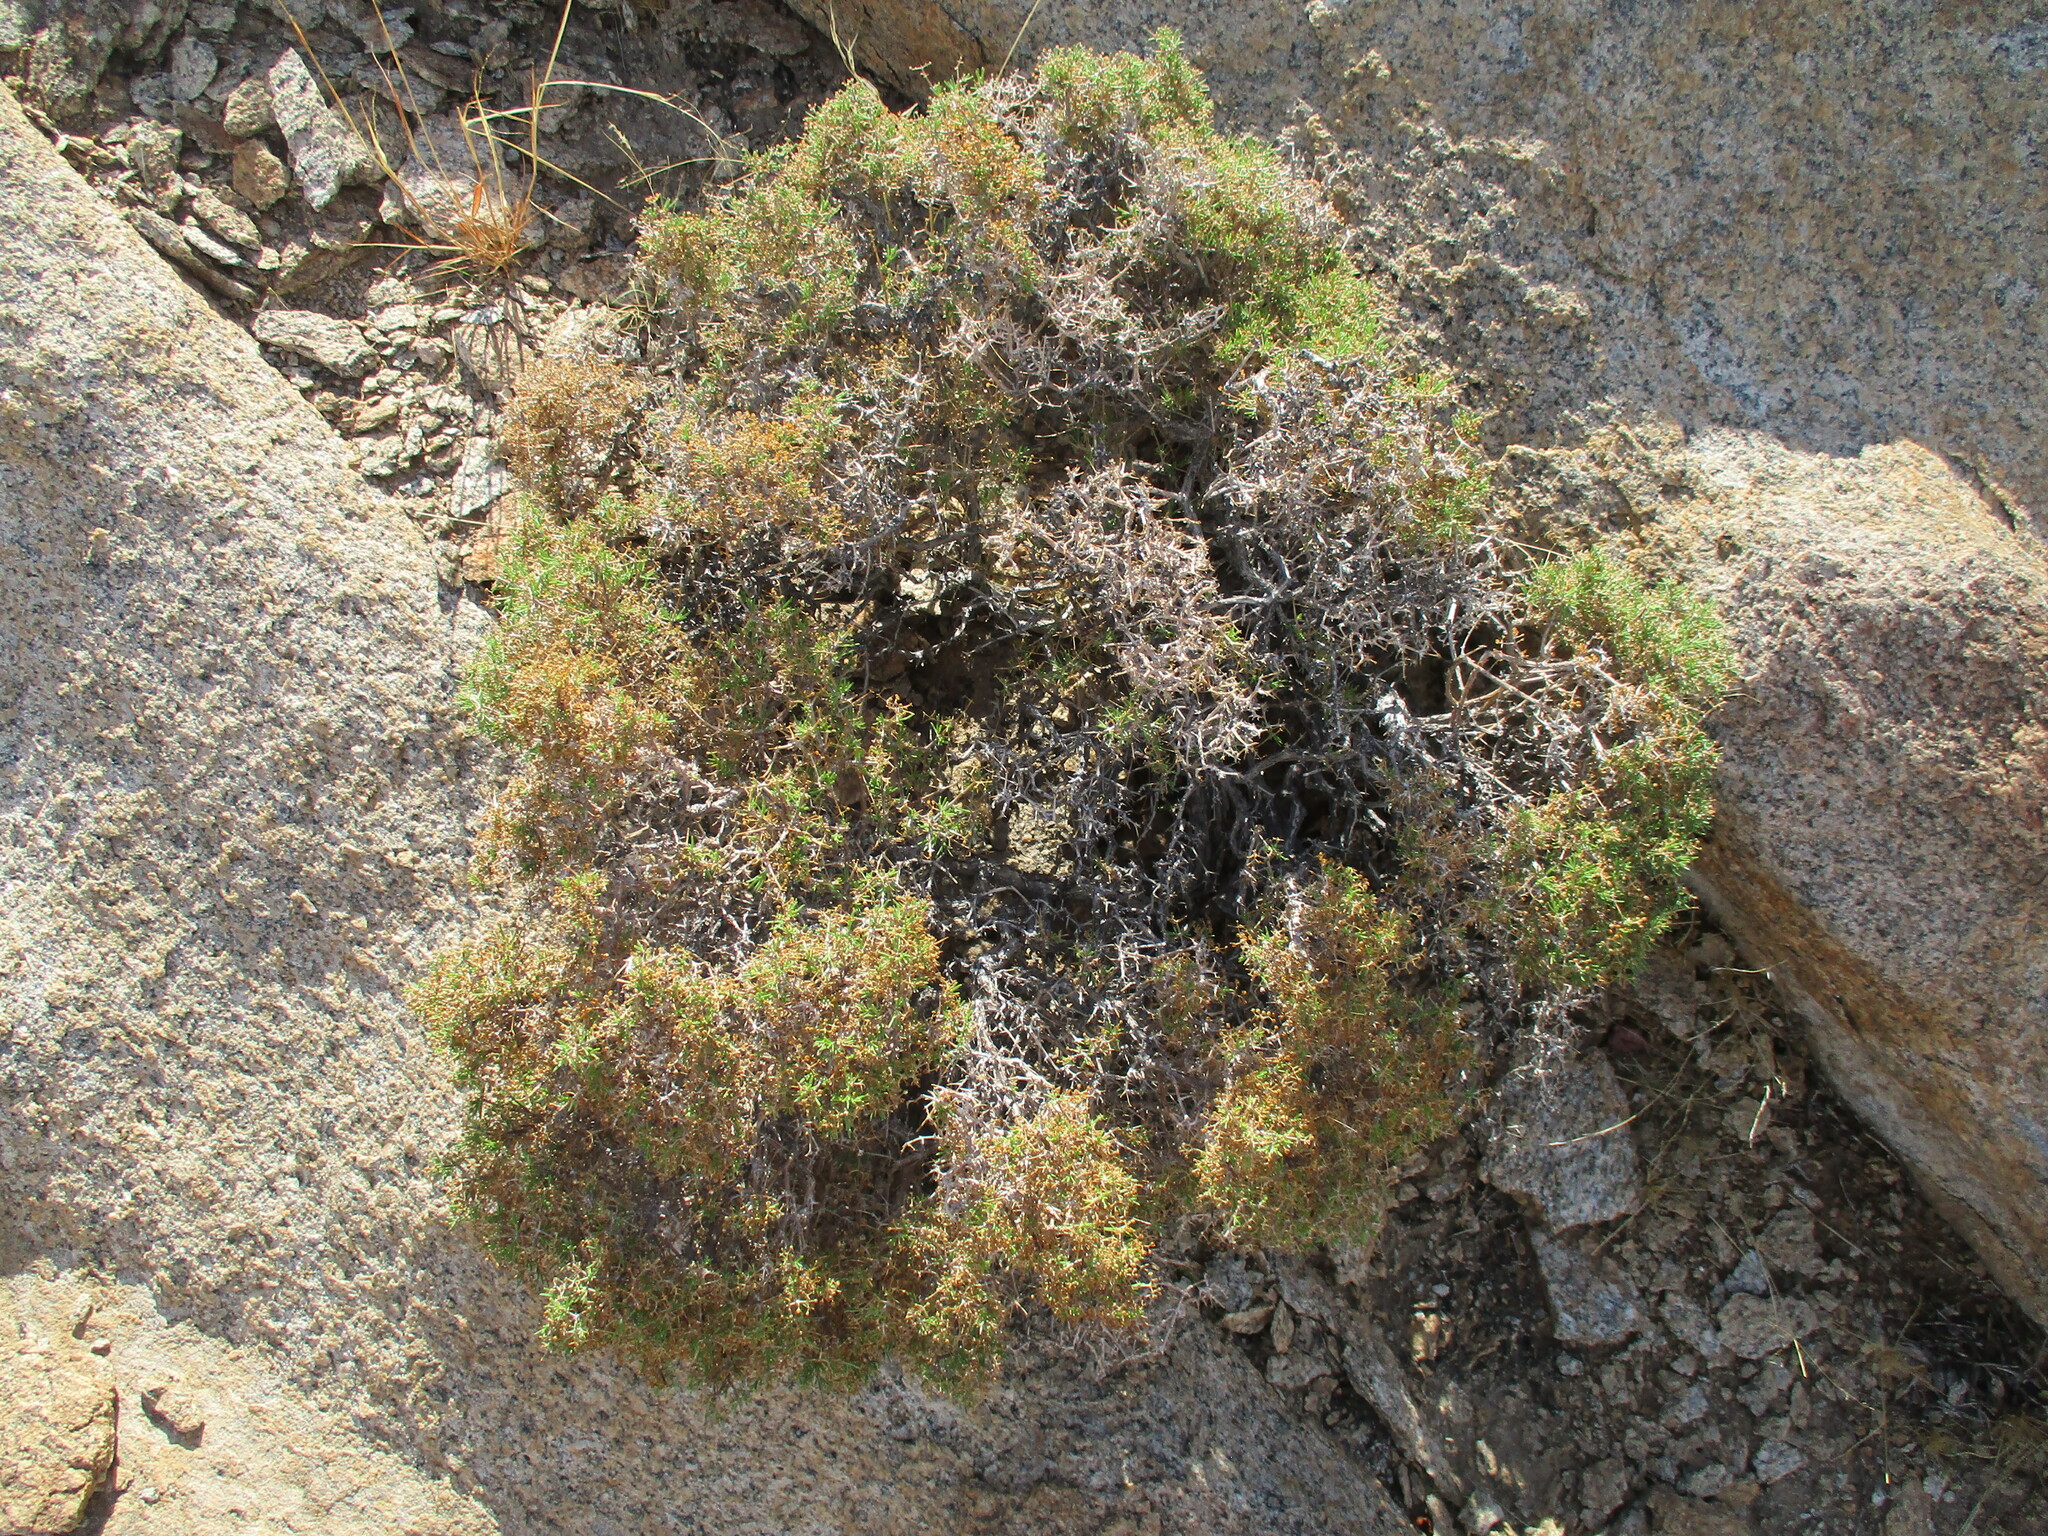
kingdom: Plantae
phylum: Tracheophyta
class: Magnoliopsida
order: Gentianales
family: Rubiaceae
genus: Amphiasma
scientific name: Amphiasma divaricatum
